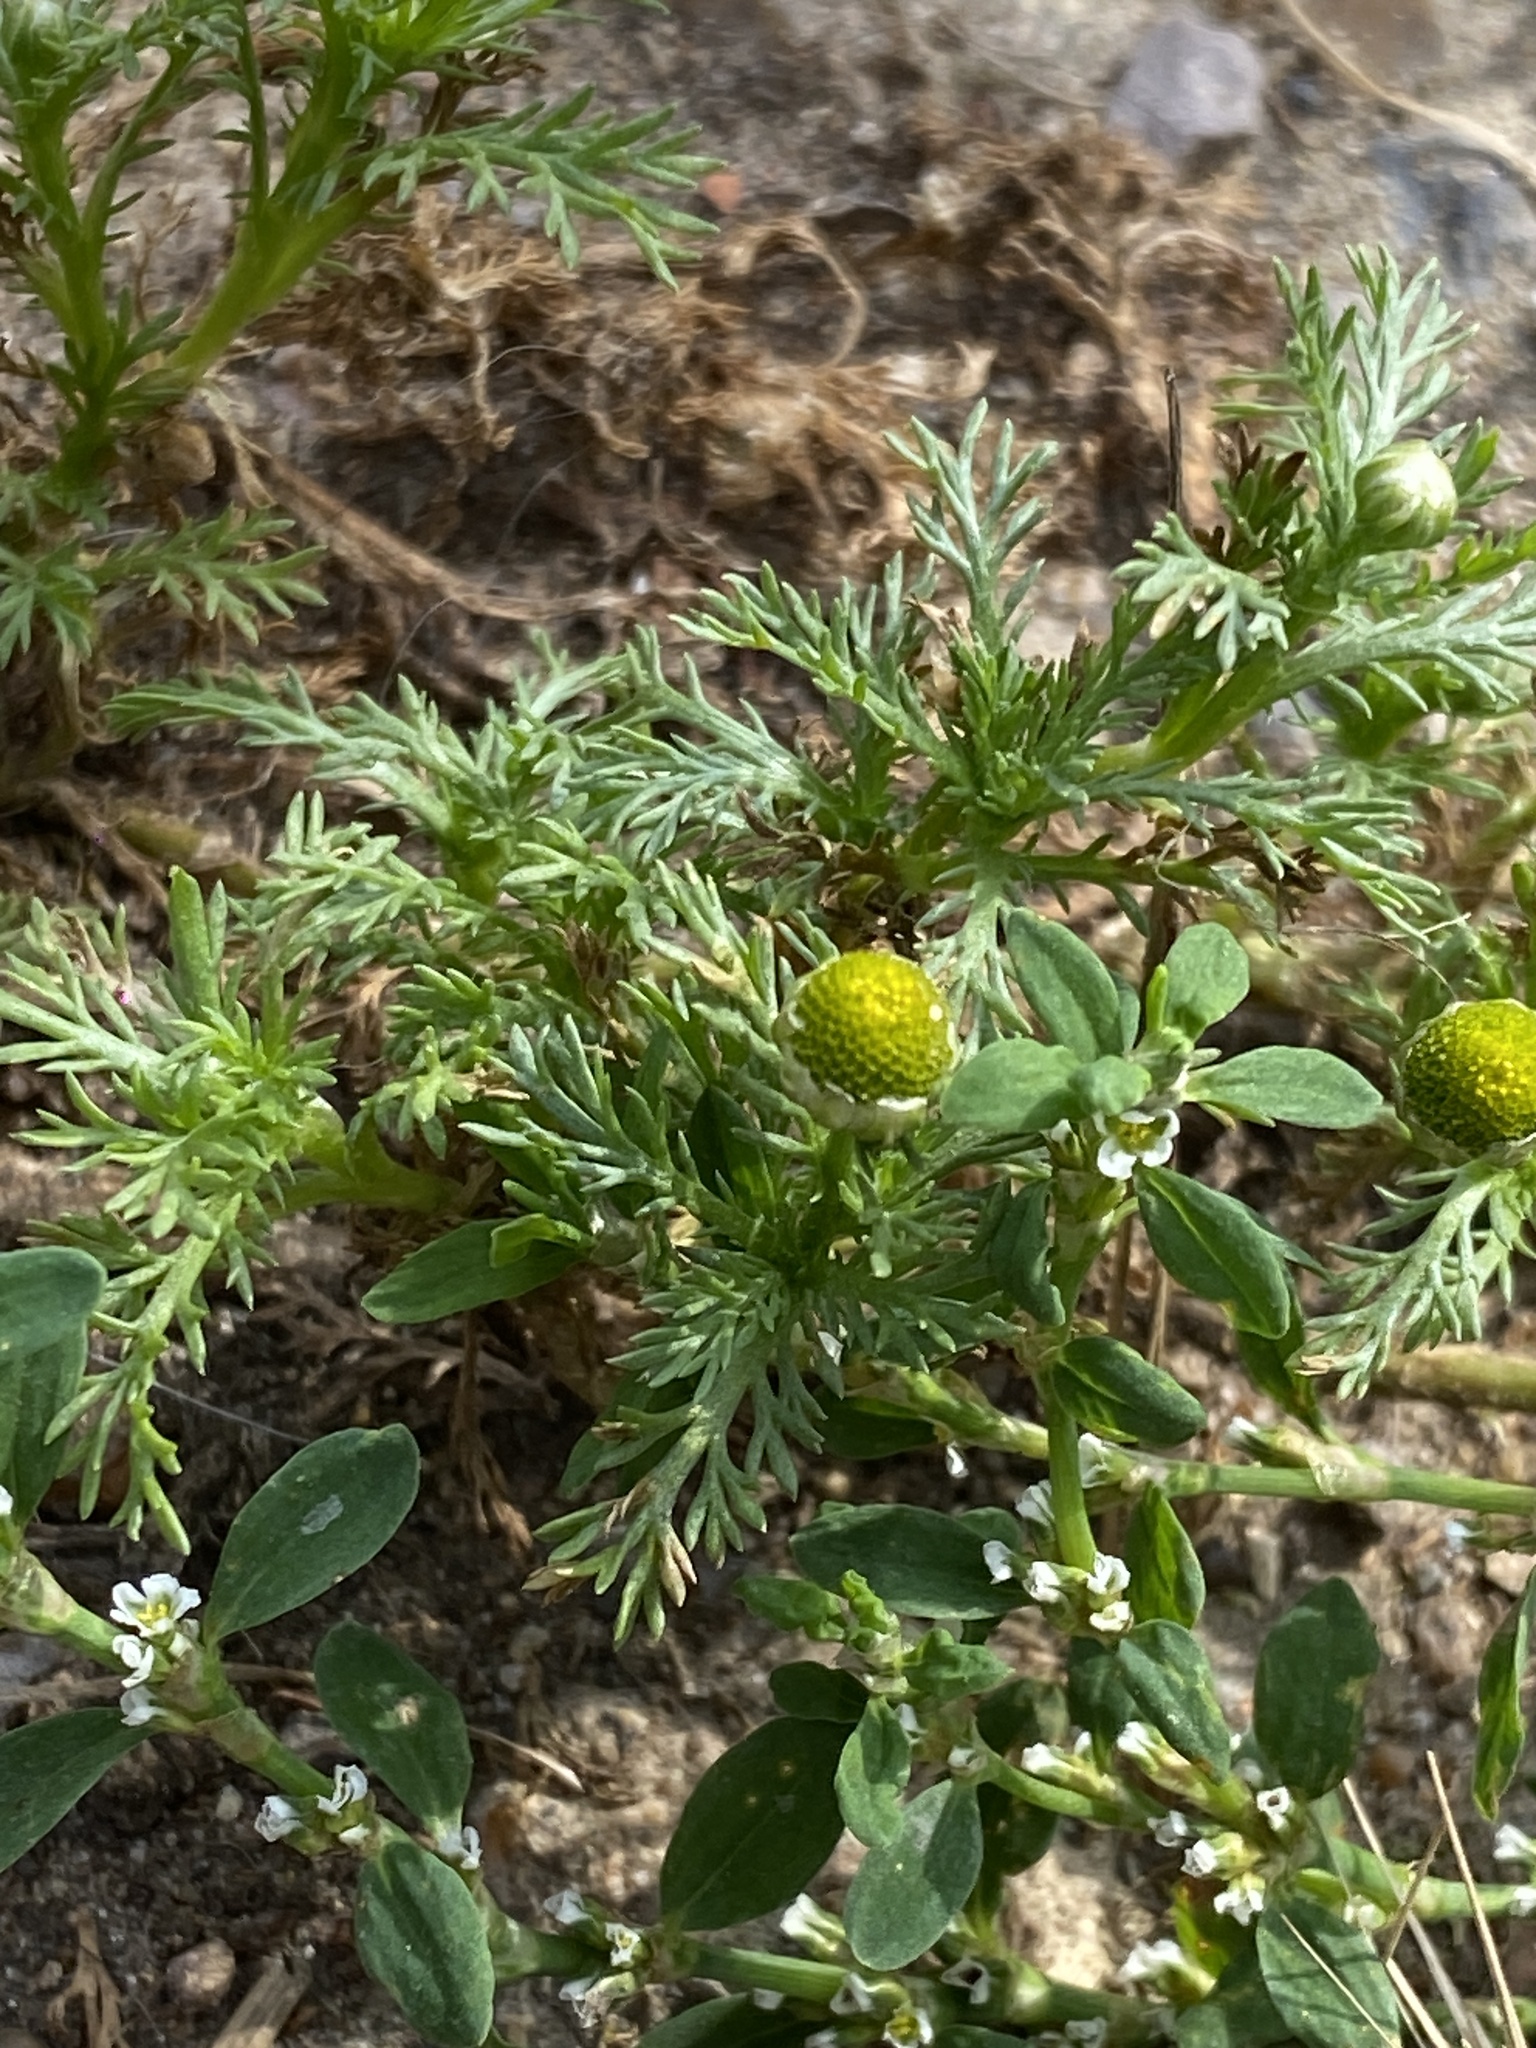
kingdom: Plantae
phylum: Tracheophyta
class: Magnoliopsida
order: Asterales
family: Asteraceae
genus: Matricaria
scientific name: Matricaria discoidea
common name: Disc mayweed
